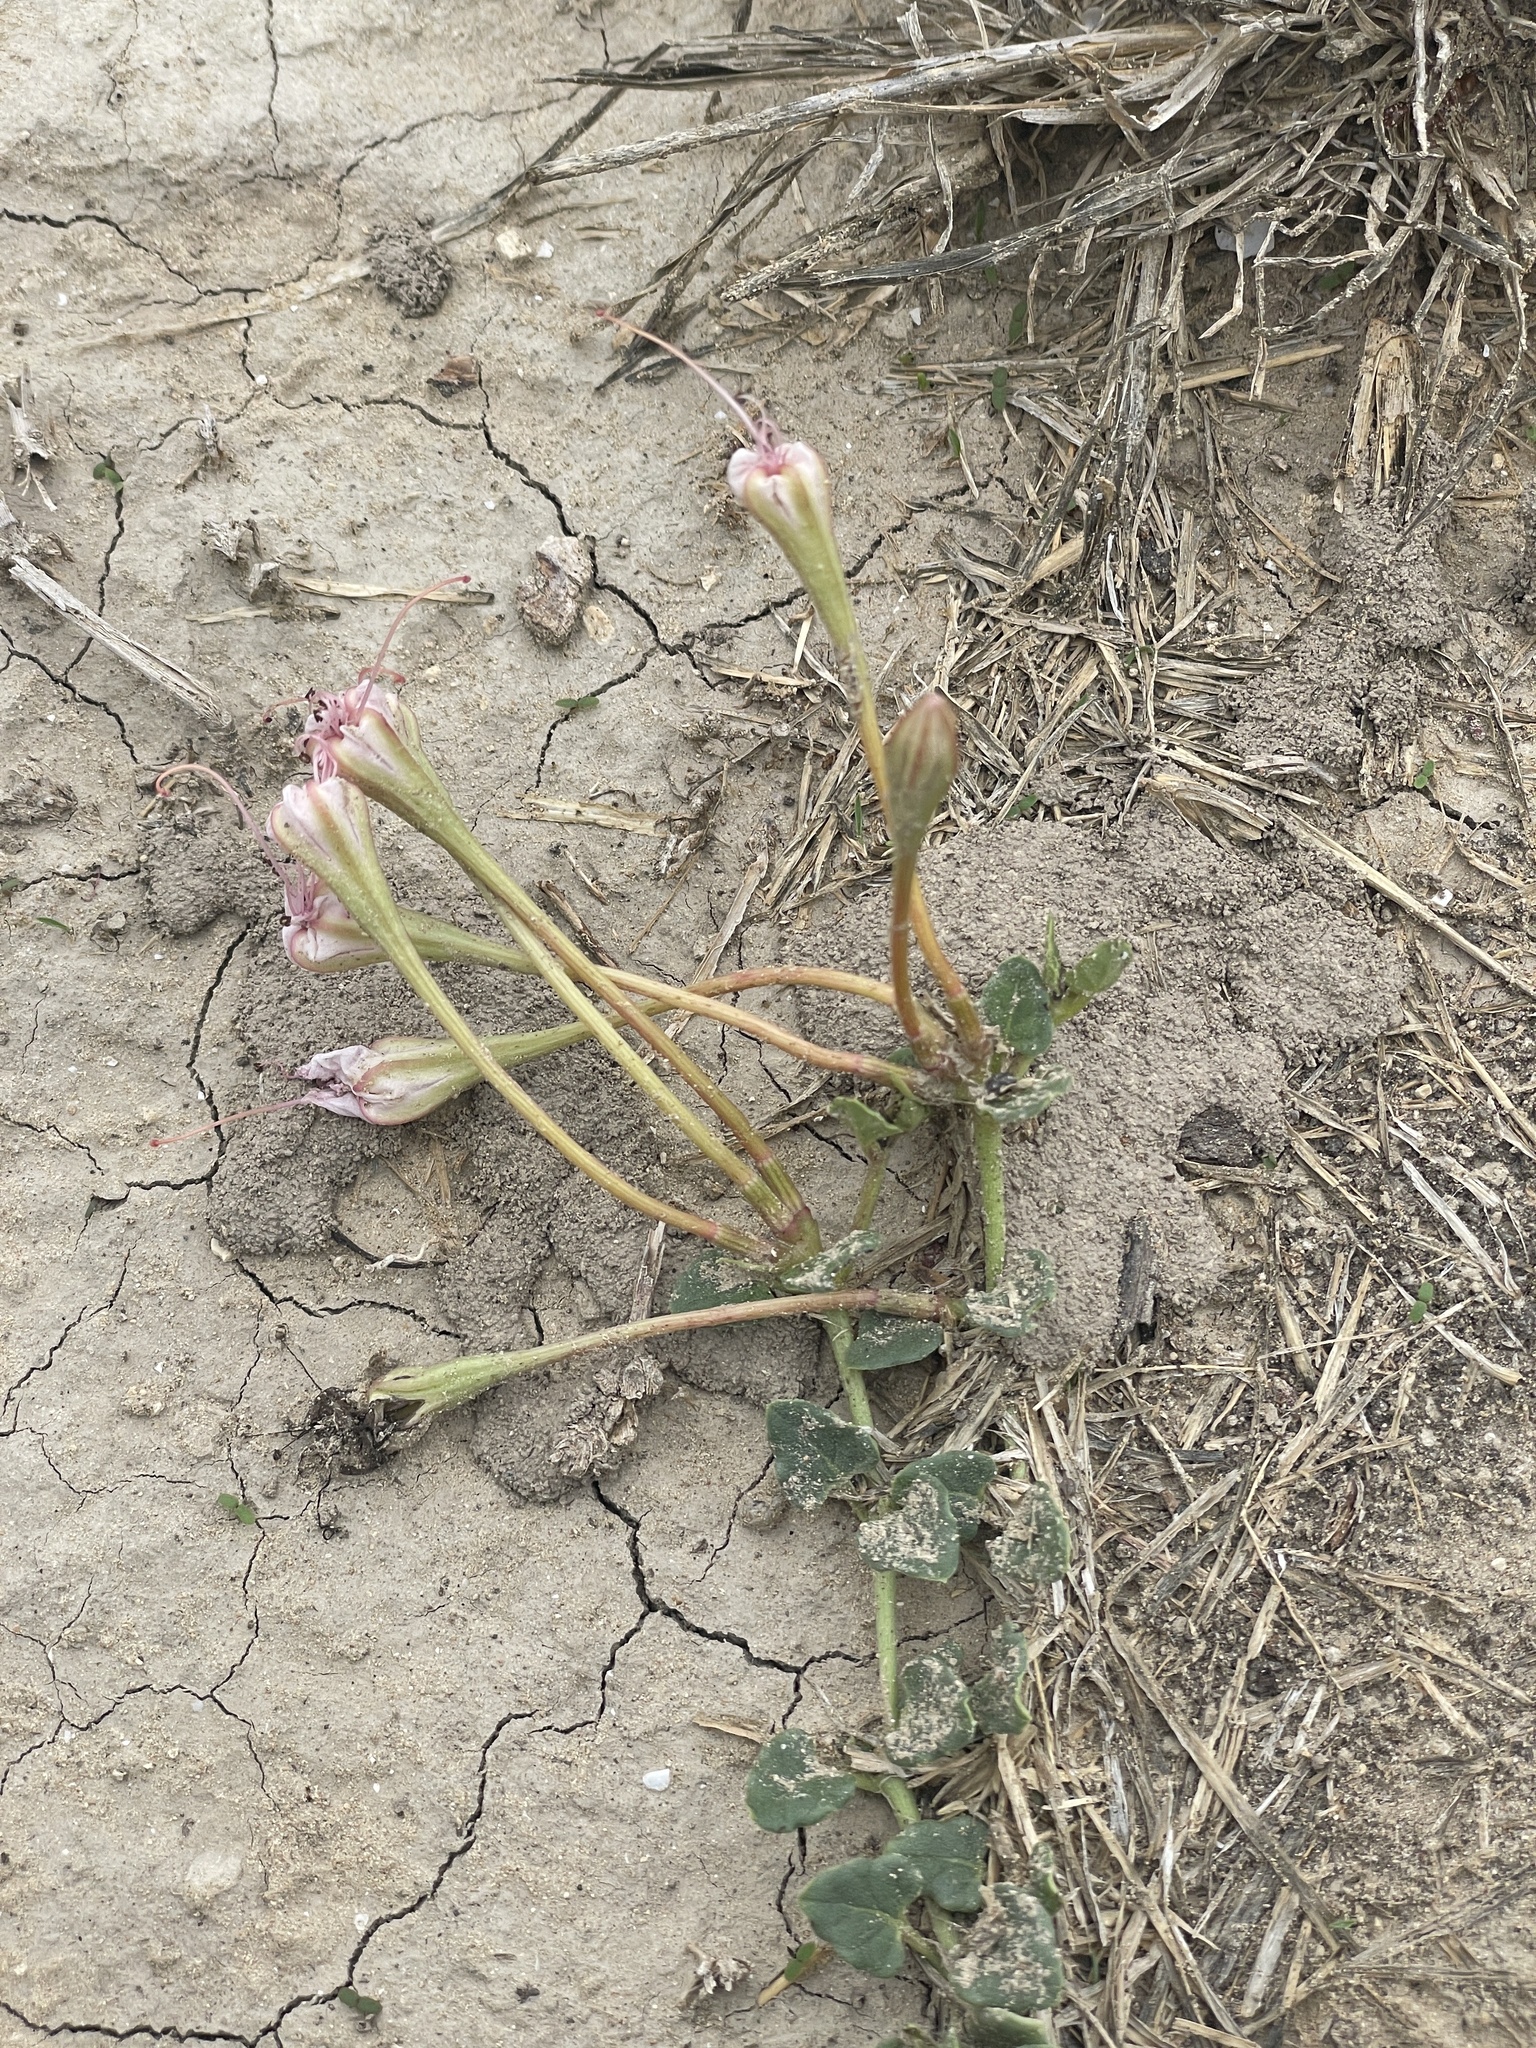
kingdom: Plantae
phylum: Tracheophyta
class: Magnoliopsida
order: Caryophyllales
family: Nyctaginaceae
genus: Acleisanthes
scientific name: Acleisanthes obtusa
